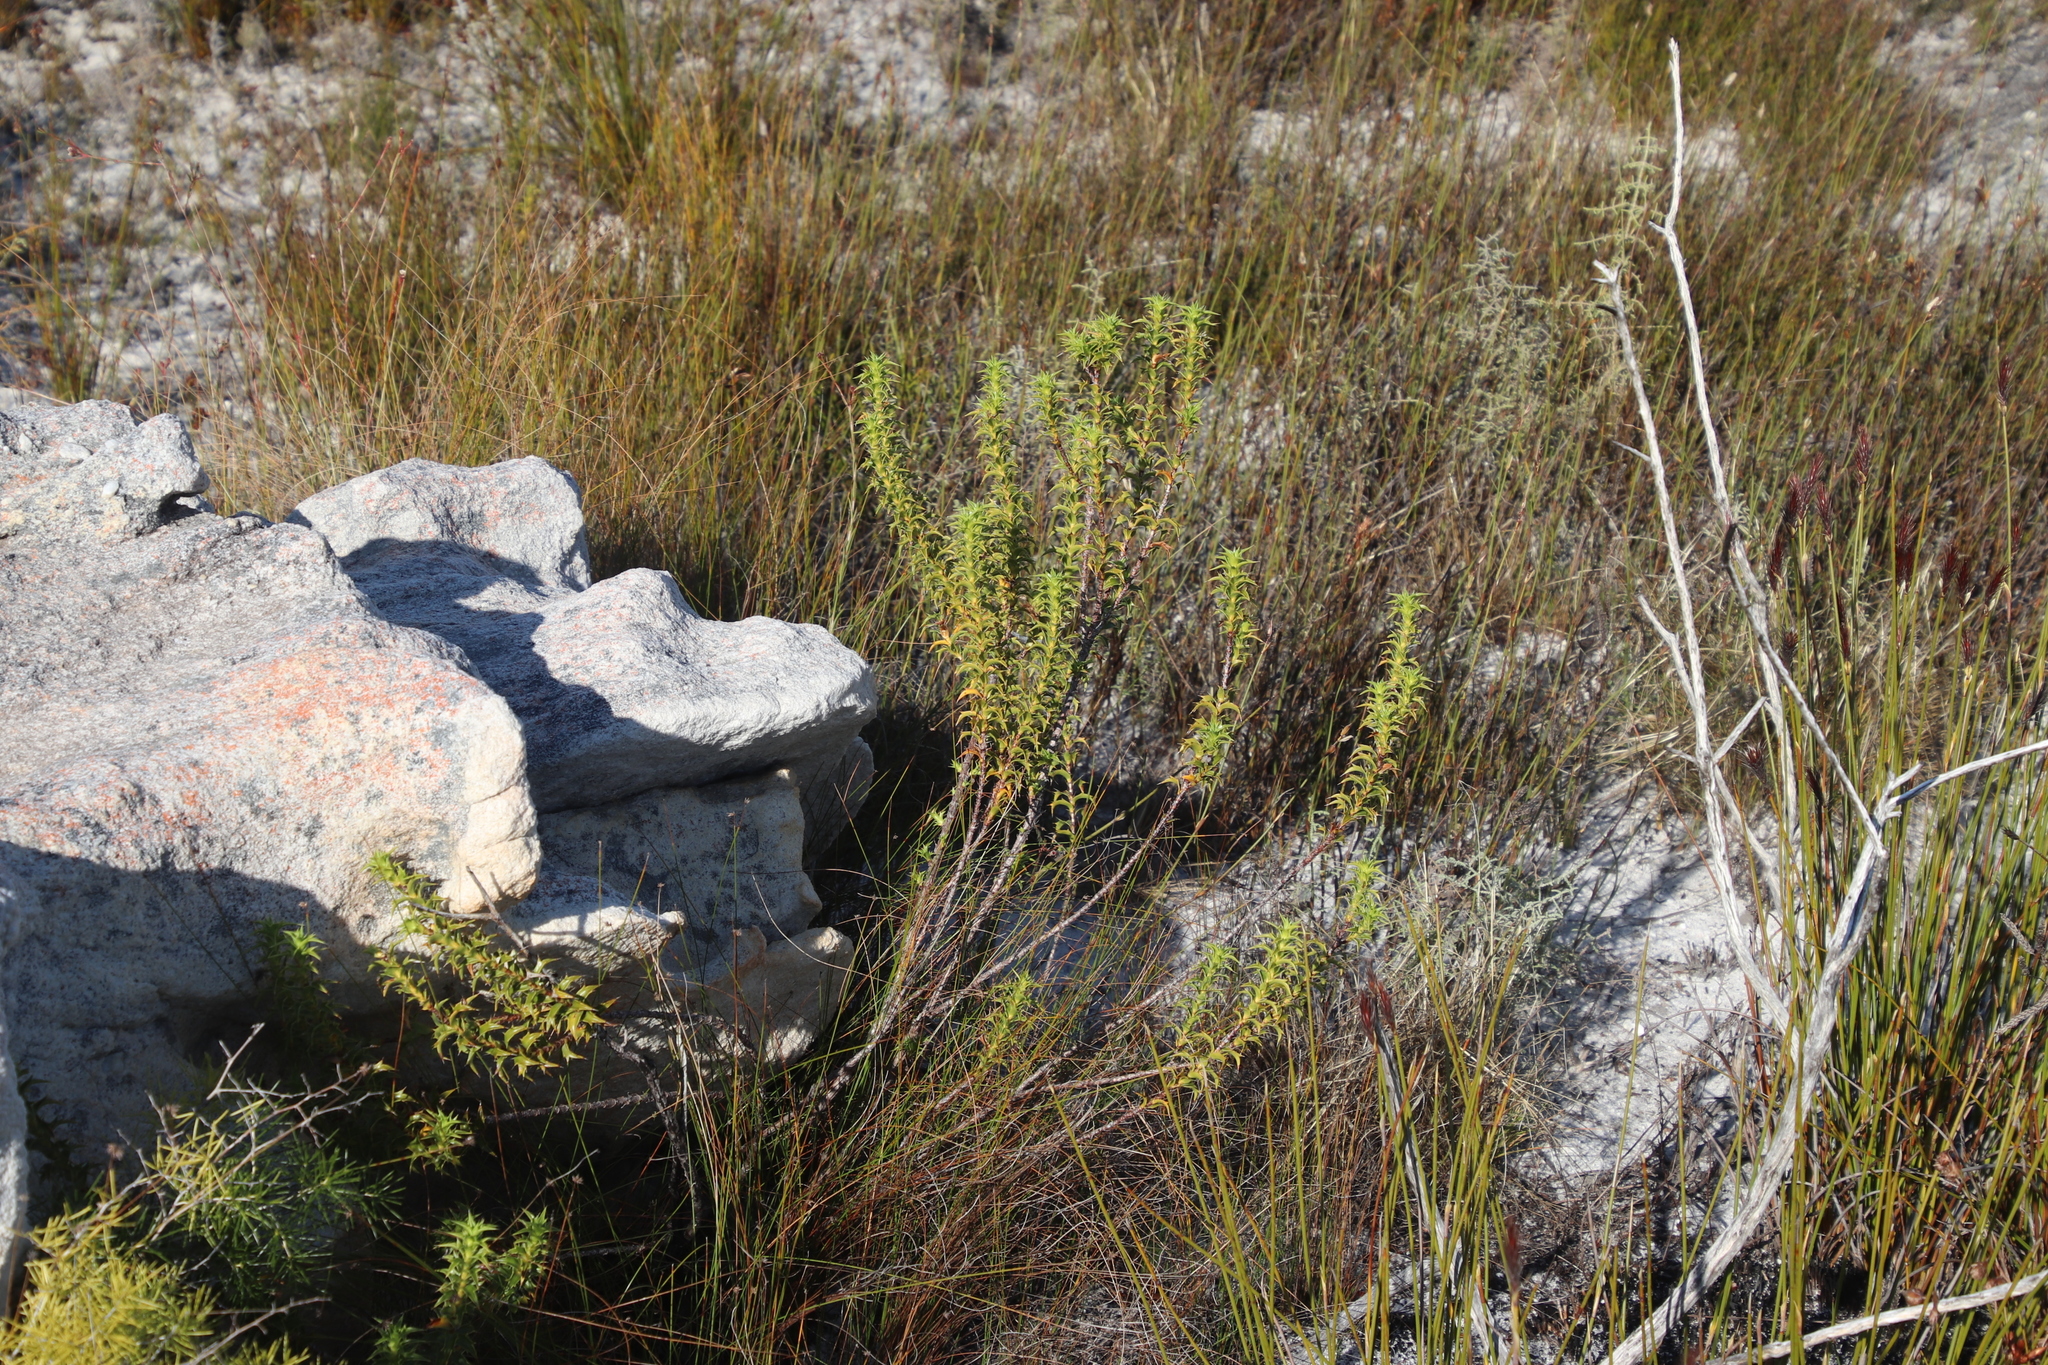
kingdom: Plantae
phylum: Tracheophyta
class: Magnoliopsida
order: Rosales
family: Rosaceae
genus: Cliffortia
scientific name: Cliffortia ceresana
